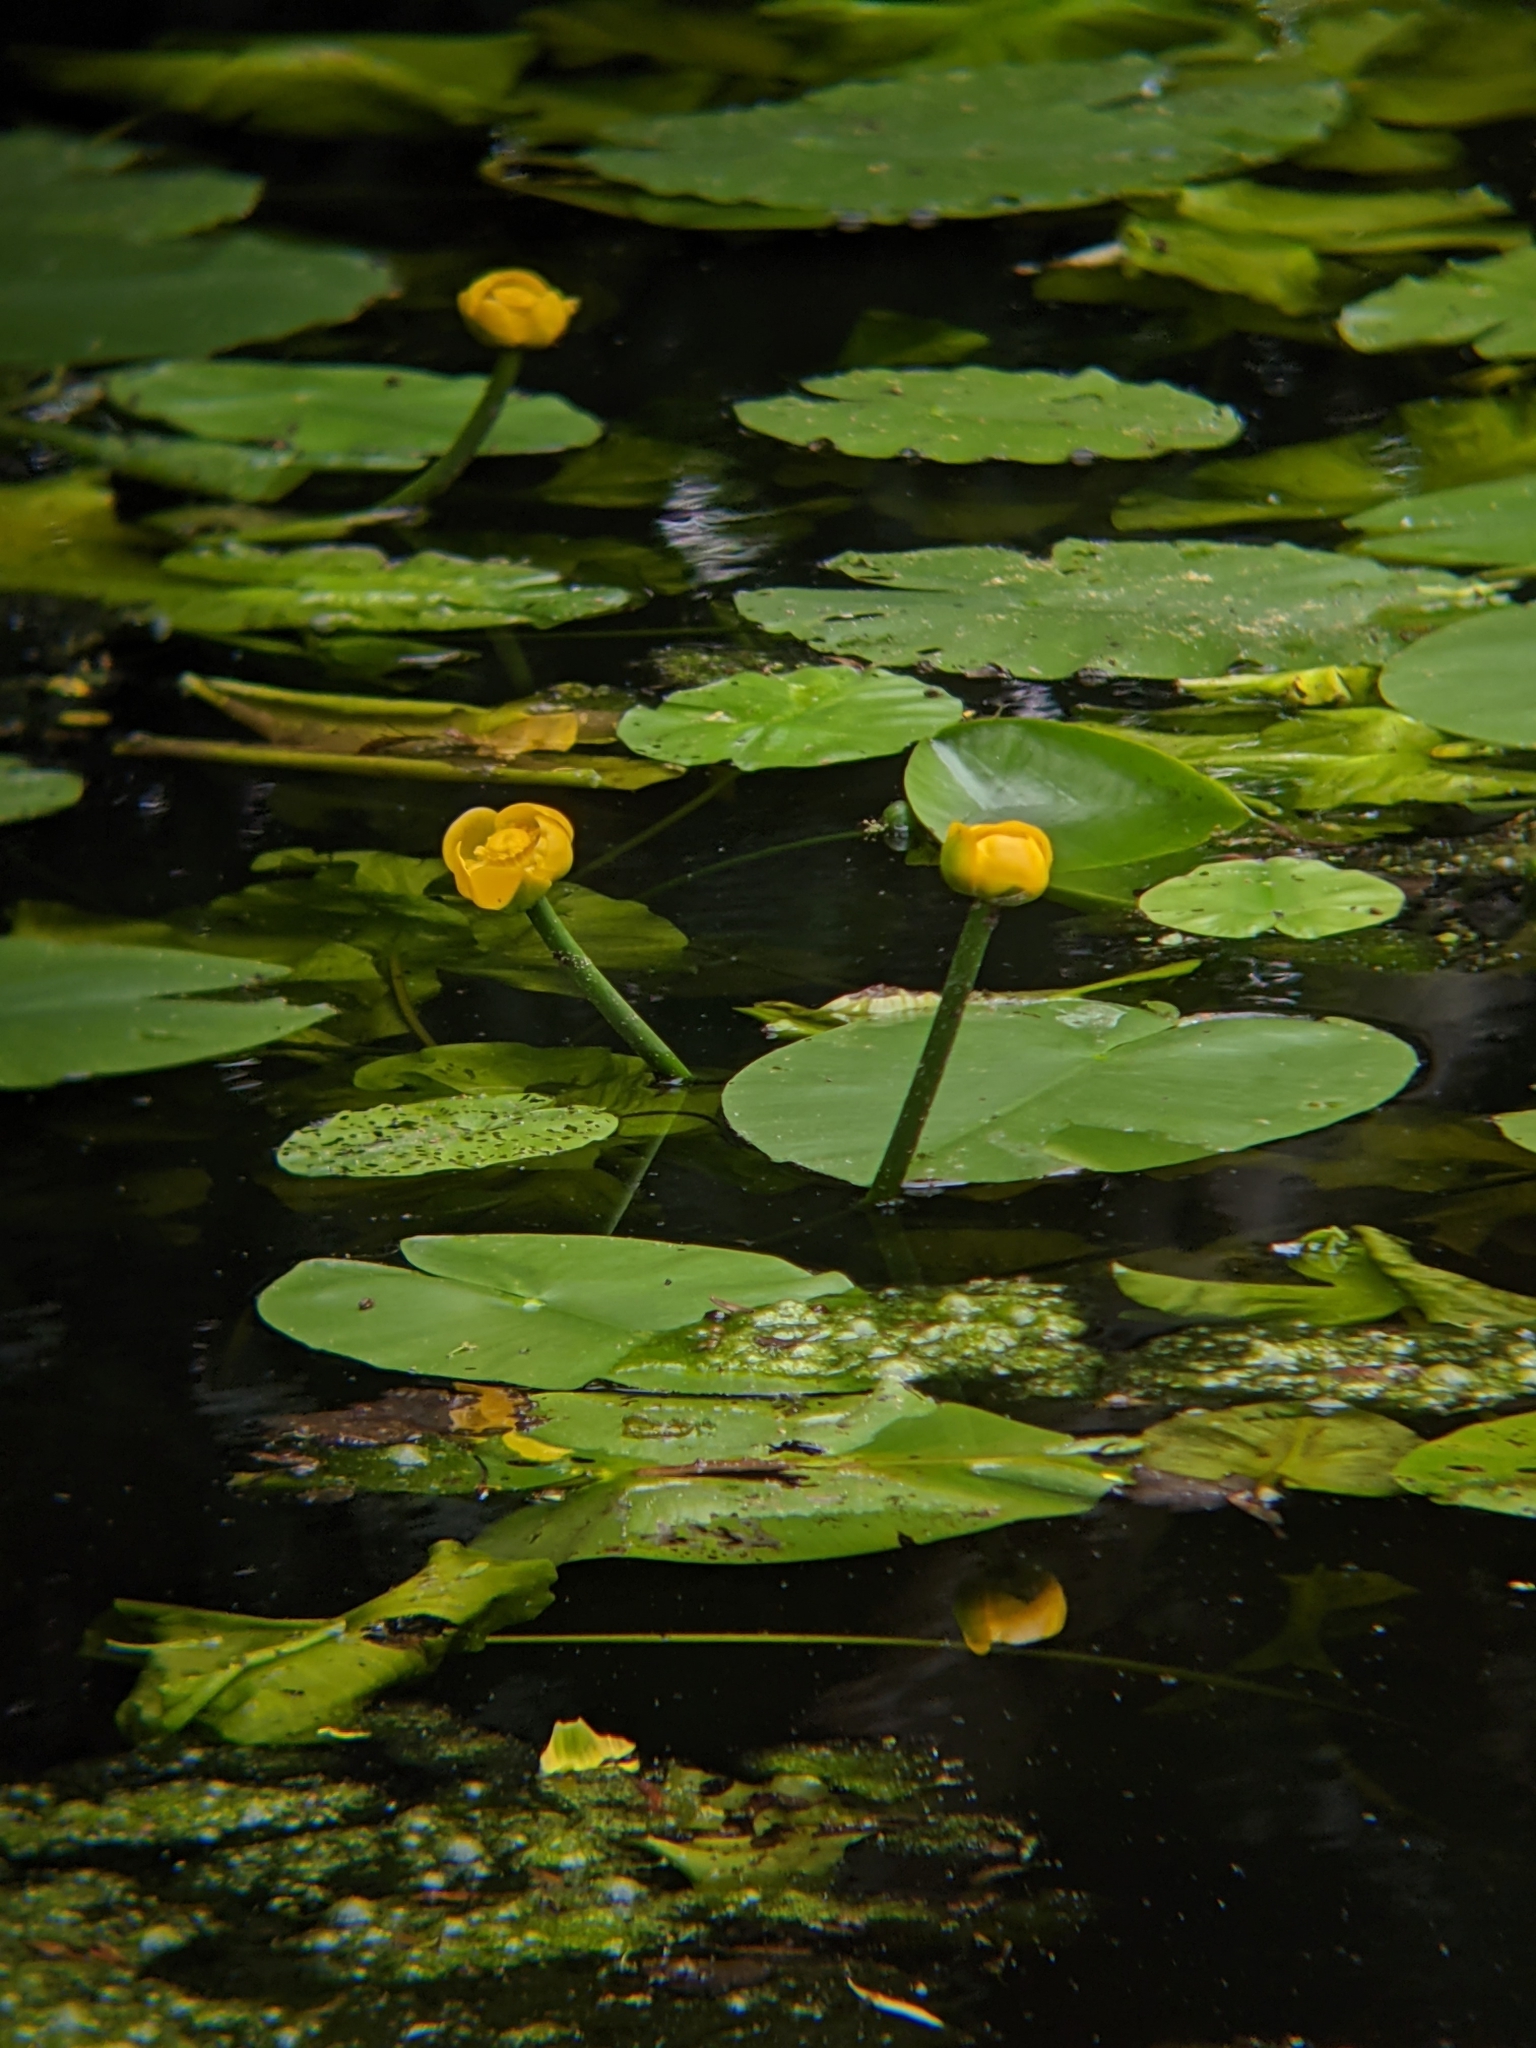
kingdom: Plantae
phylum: Tracheophyta
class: Magnoliopsida
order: Nymphaeales
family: Nymphaeaceae
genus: Nuphar
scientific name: Nuphar lutea
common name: Yellow water-lily
